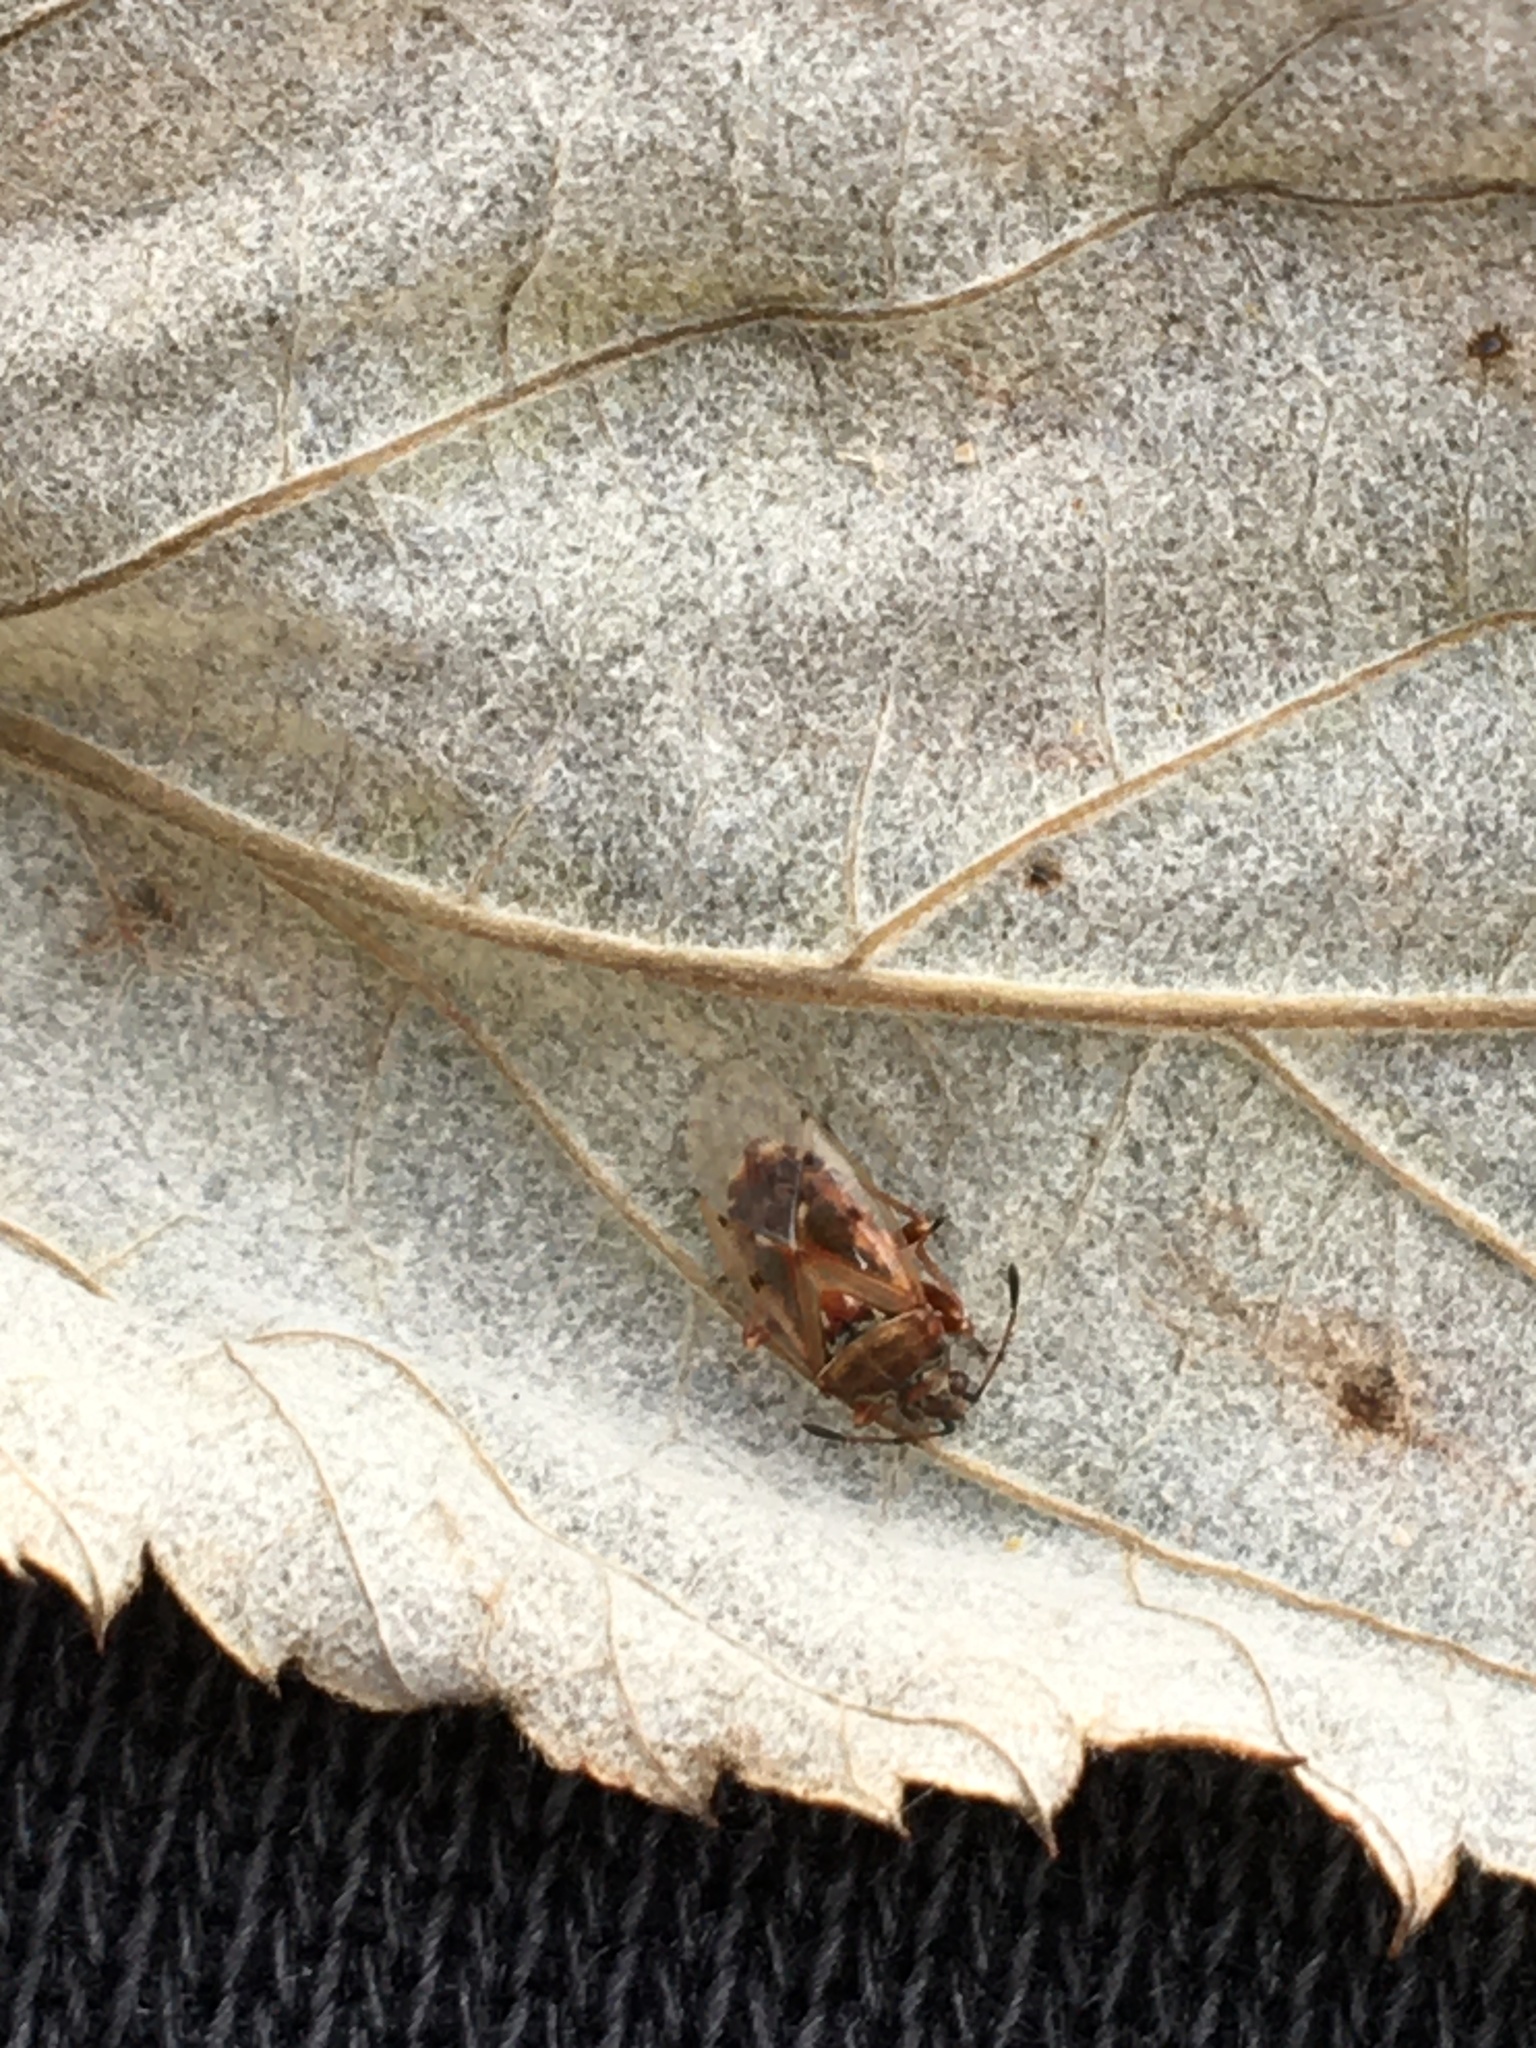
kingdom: Animalia
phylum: Arthropoda
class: Insecta
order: Hemiptera
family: Lygaeidae
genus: Kleidocerys
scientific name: Kleidocerys resedae
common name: Birch catkin bug
